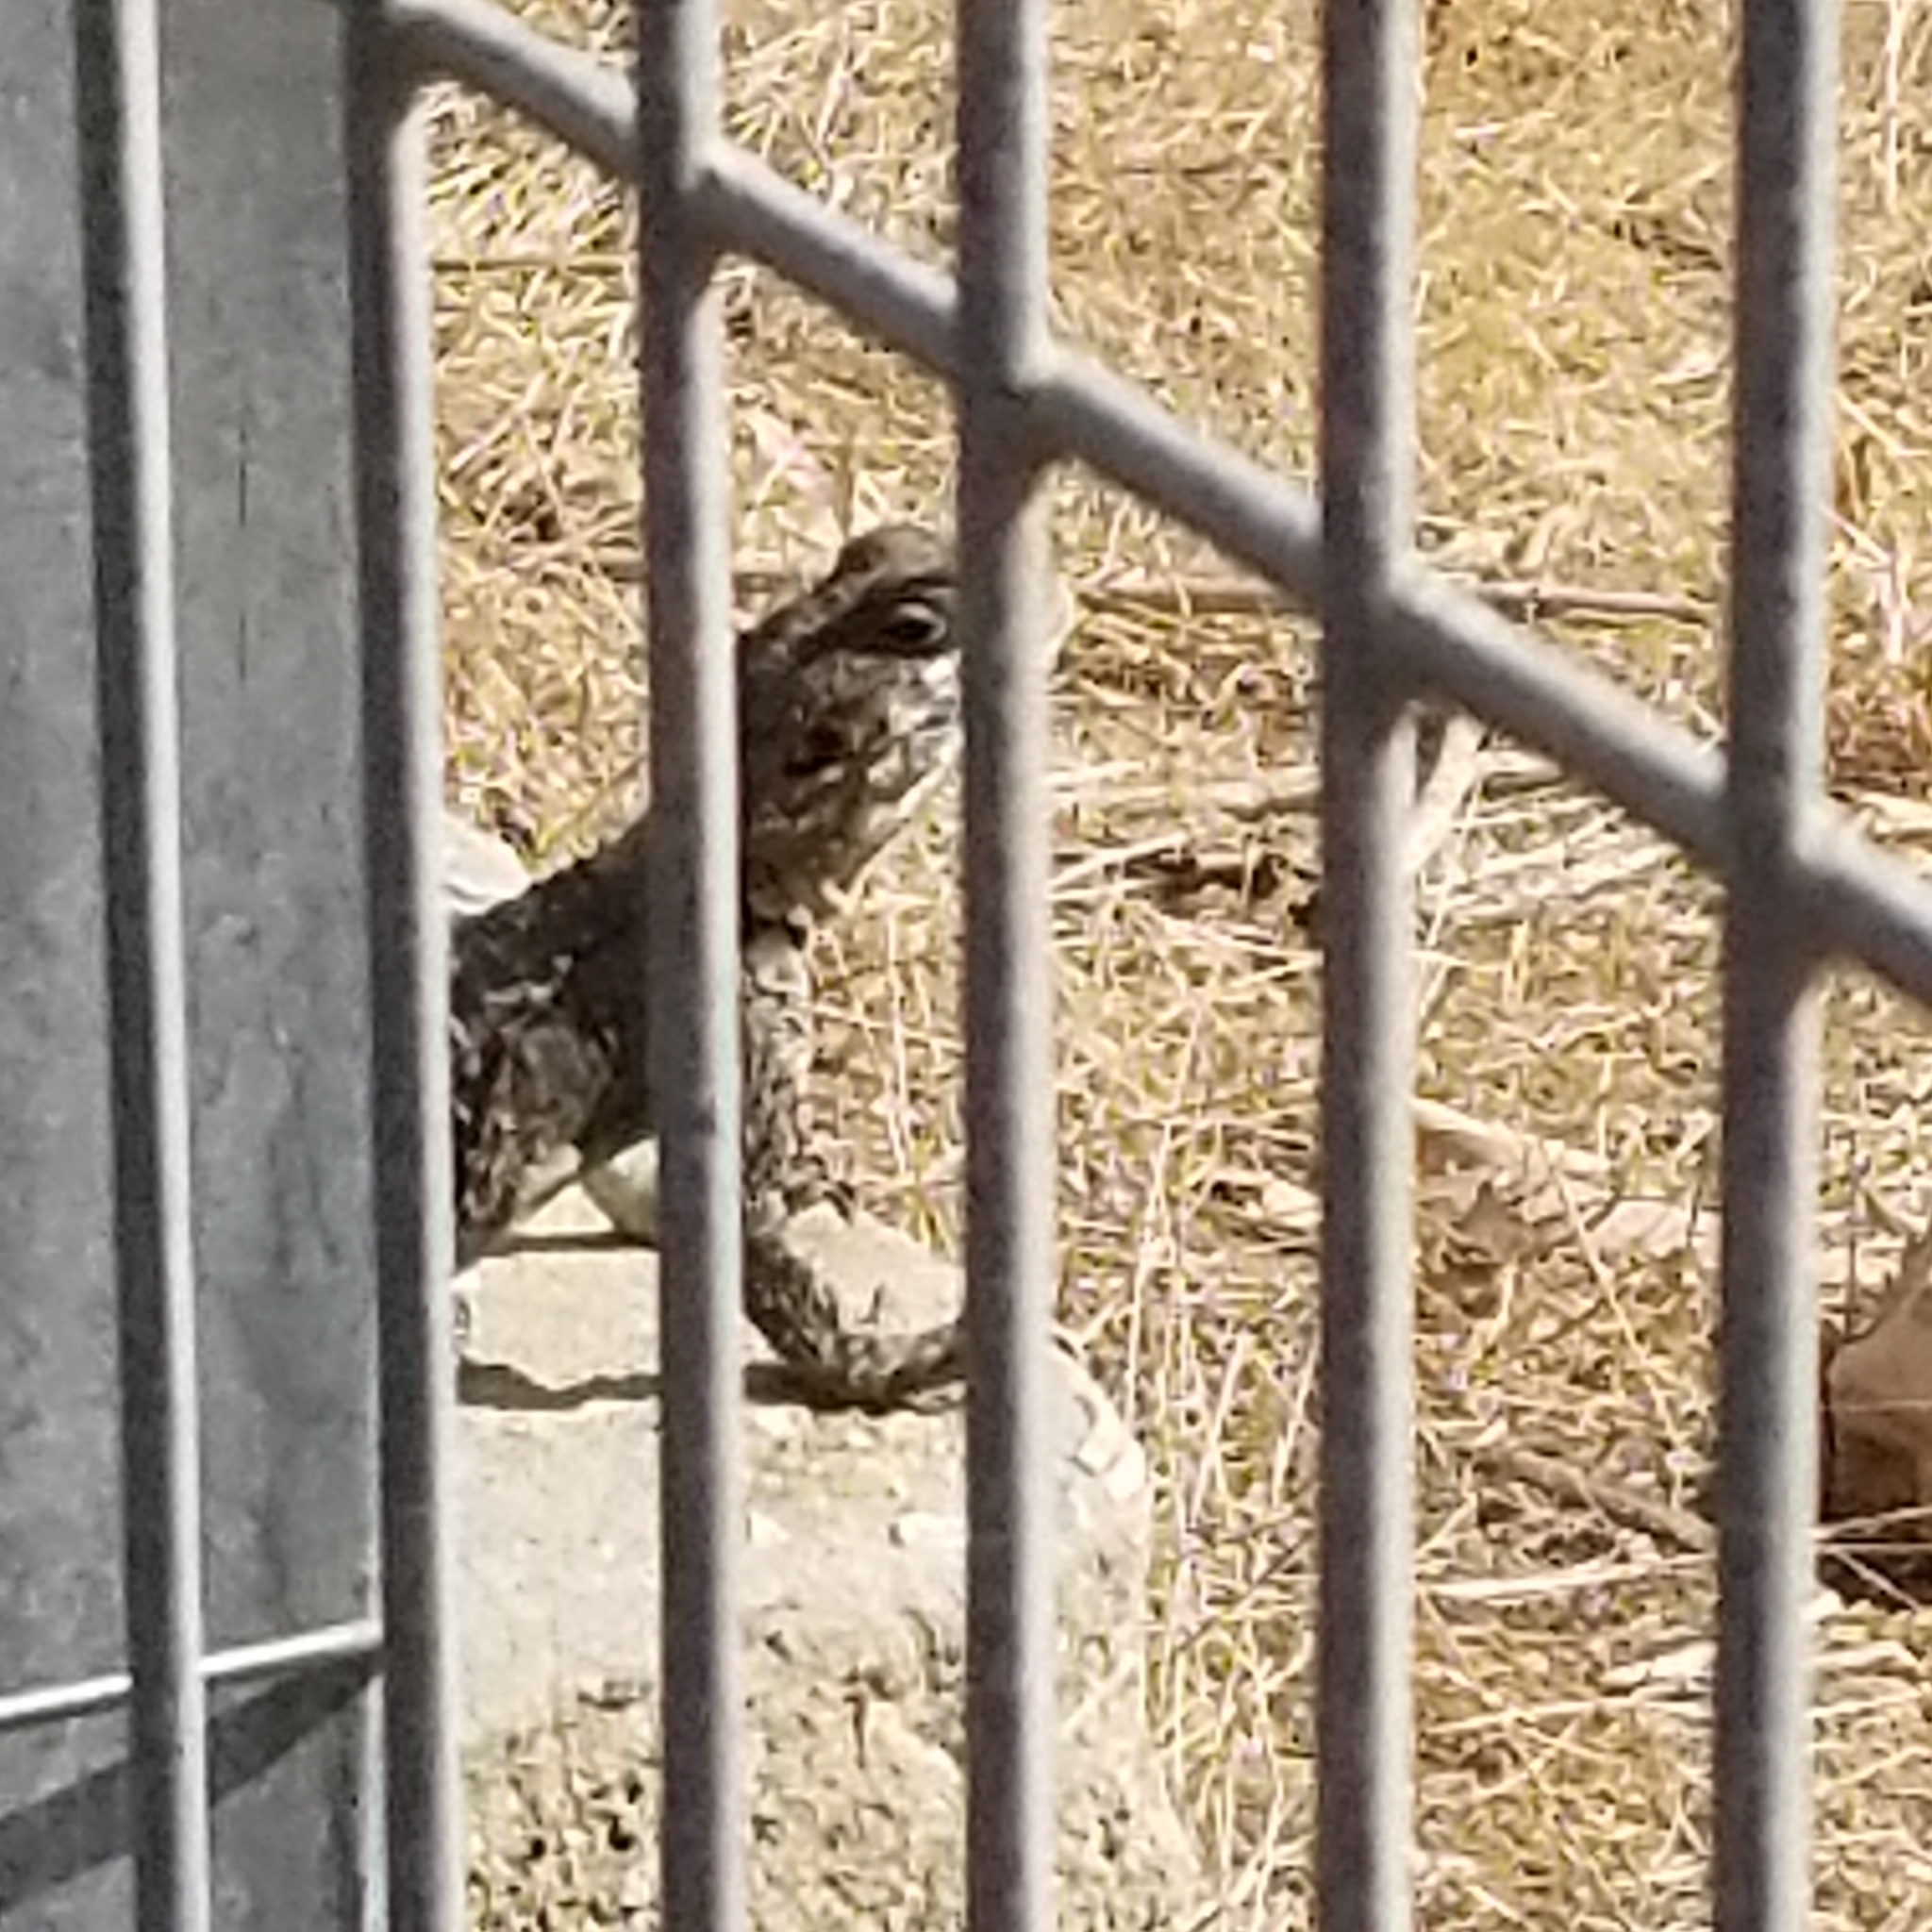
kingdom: Animalia
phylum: Chordata
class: Squamata
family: Agamidae
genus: Laudakia
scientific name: Laudakia vulgaris
